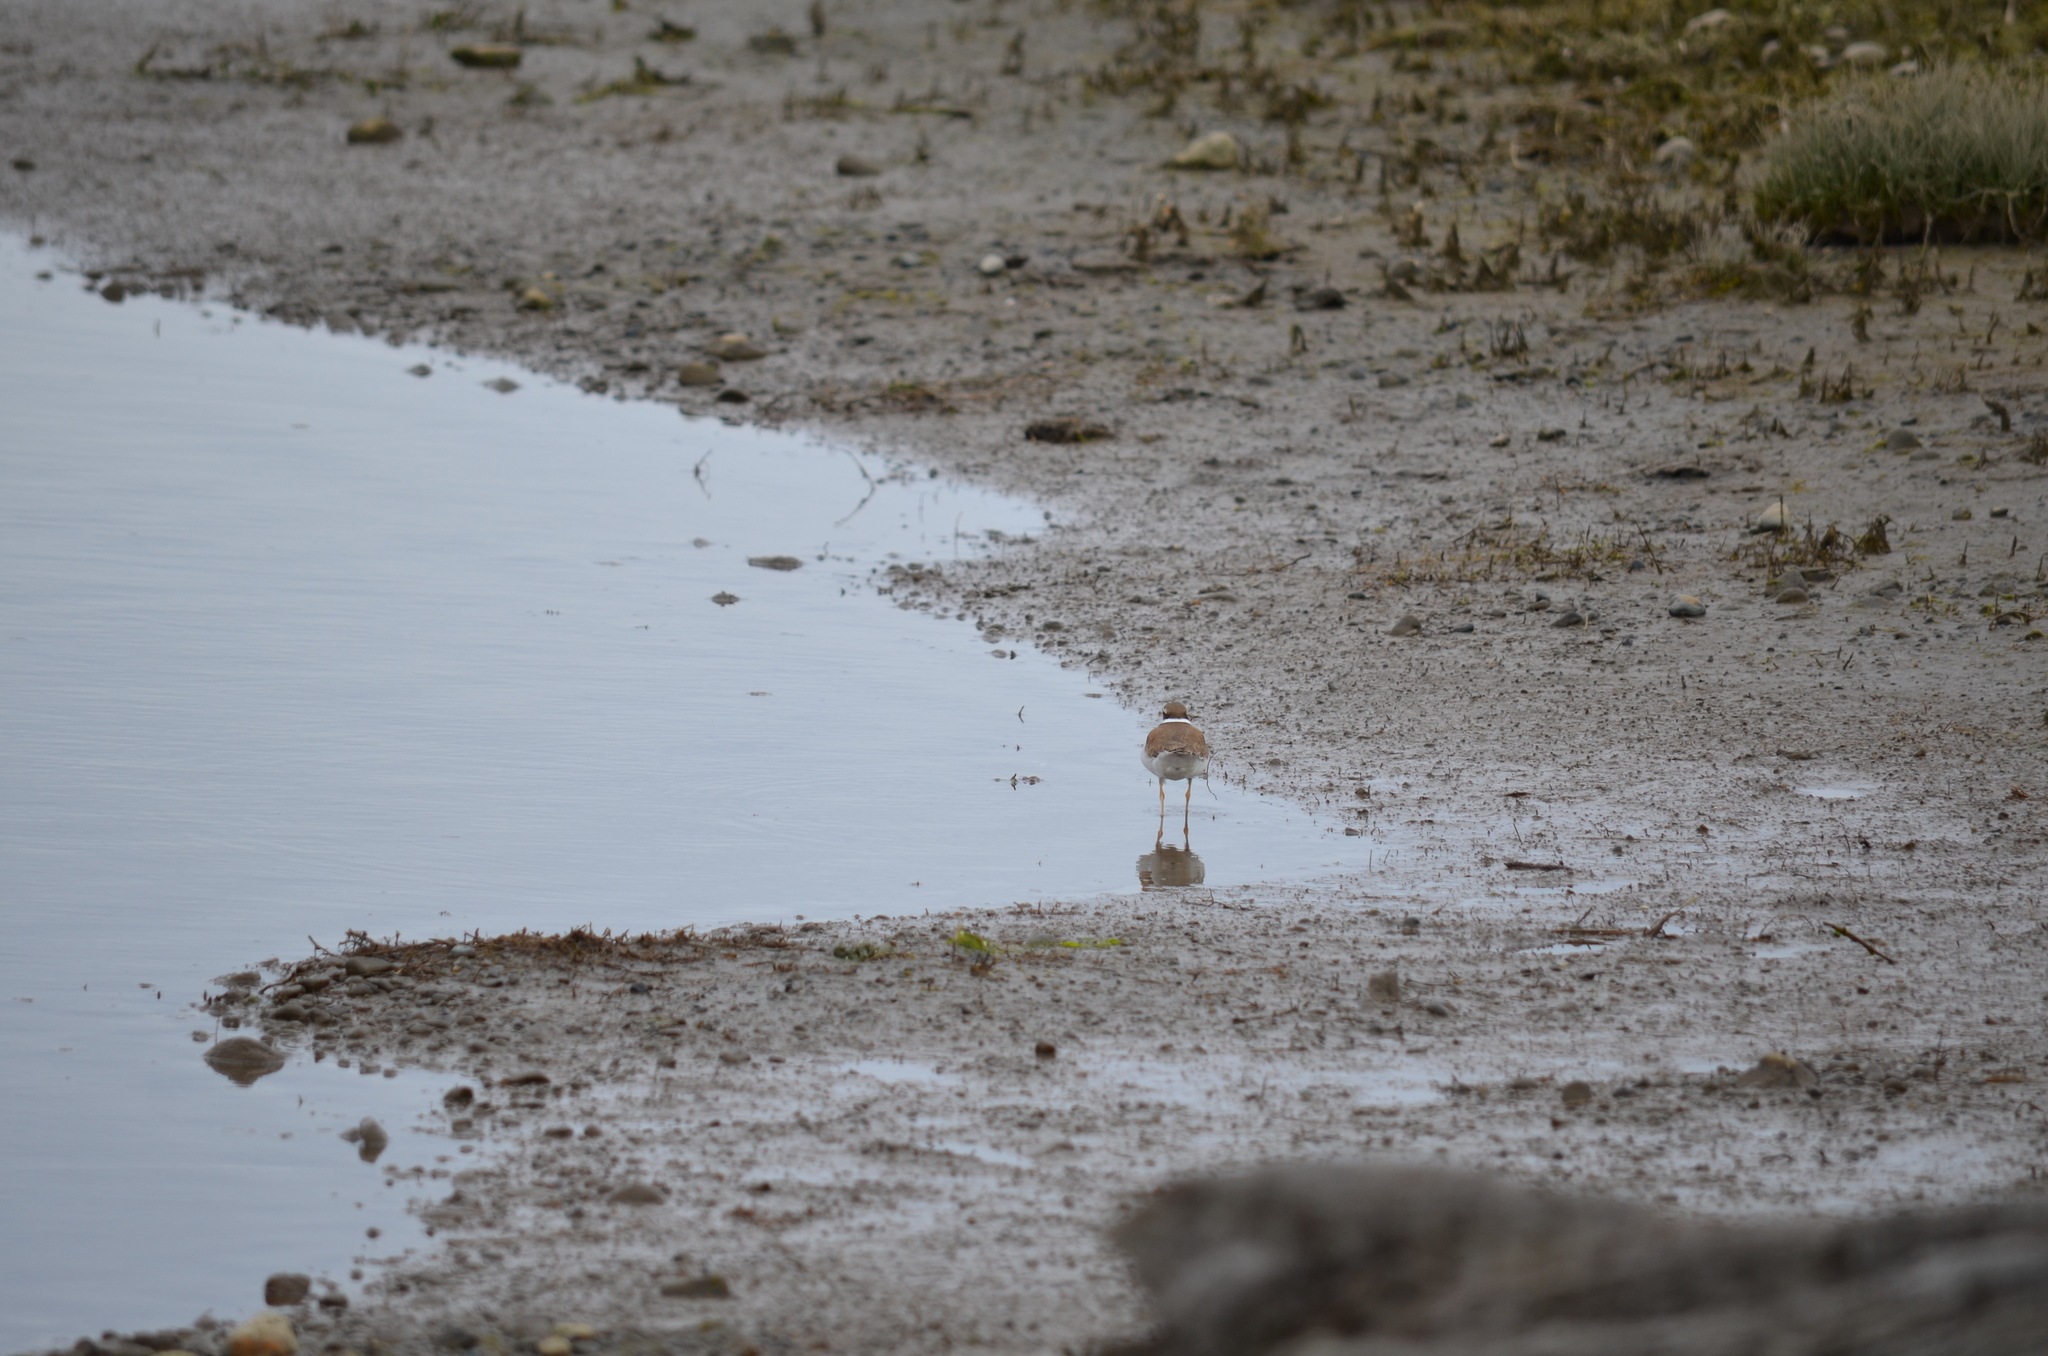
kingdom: Animalia
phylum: Chordata
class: Aves
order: Charadriiformes
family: Charadriidae
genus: Charadrius
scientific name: Charadrius vociferus
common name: Killdeer
